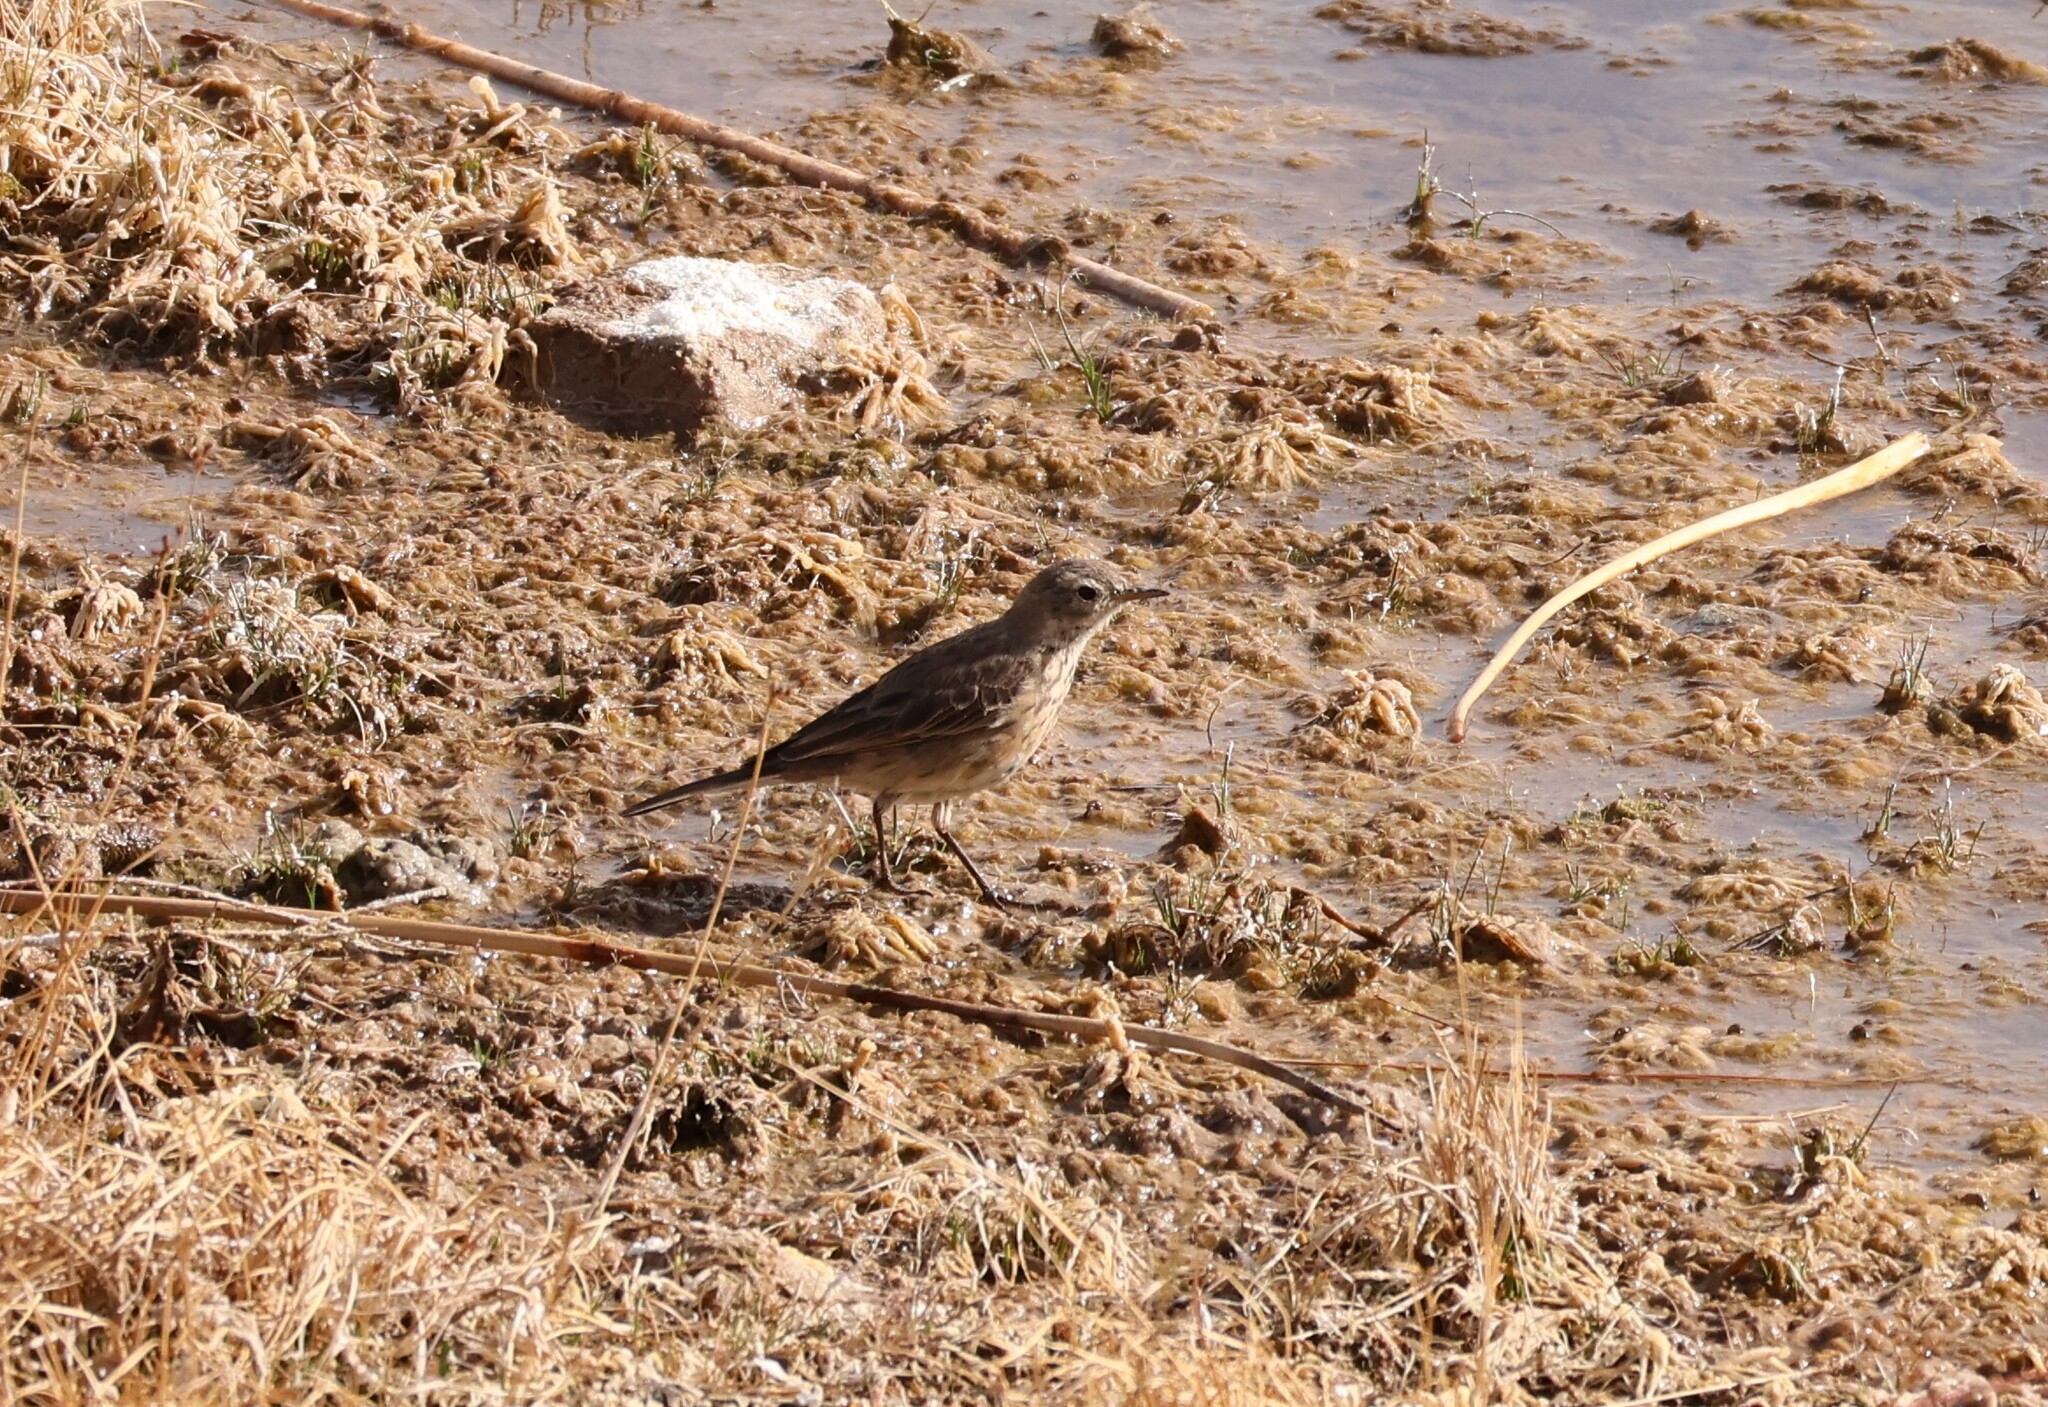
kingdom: Animalia
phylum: Chordata
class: Aves
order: Passeriformes
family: Motacillidae
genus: Anthus
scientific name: Anthus rubescens
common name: Buff-bellied pipit
